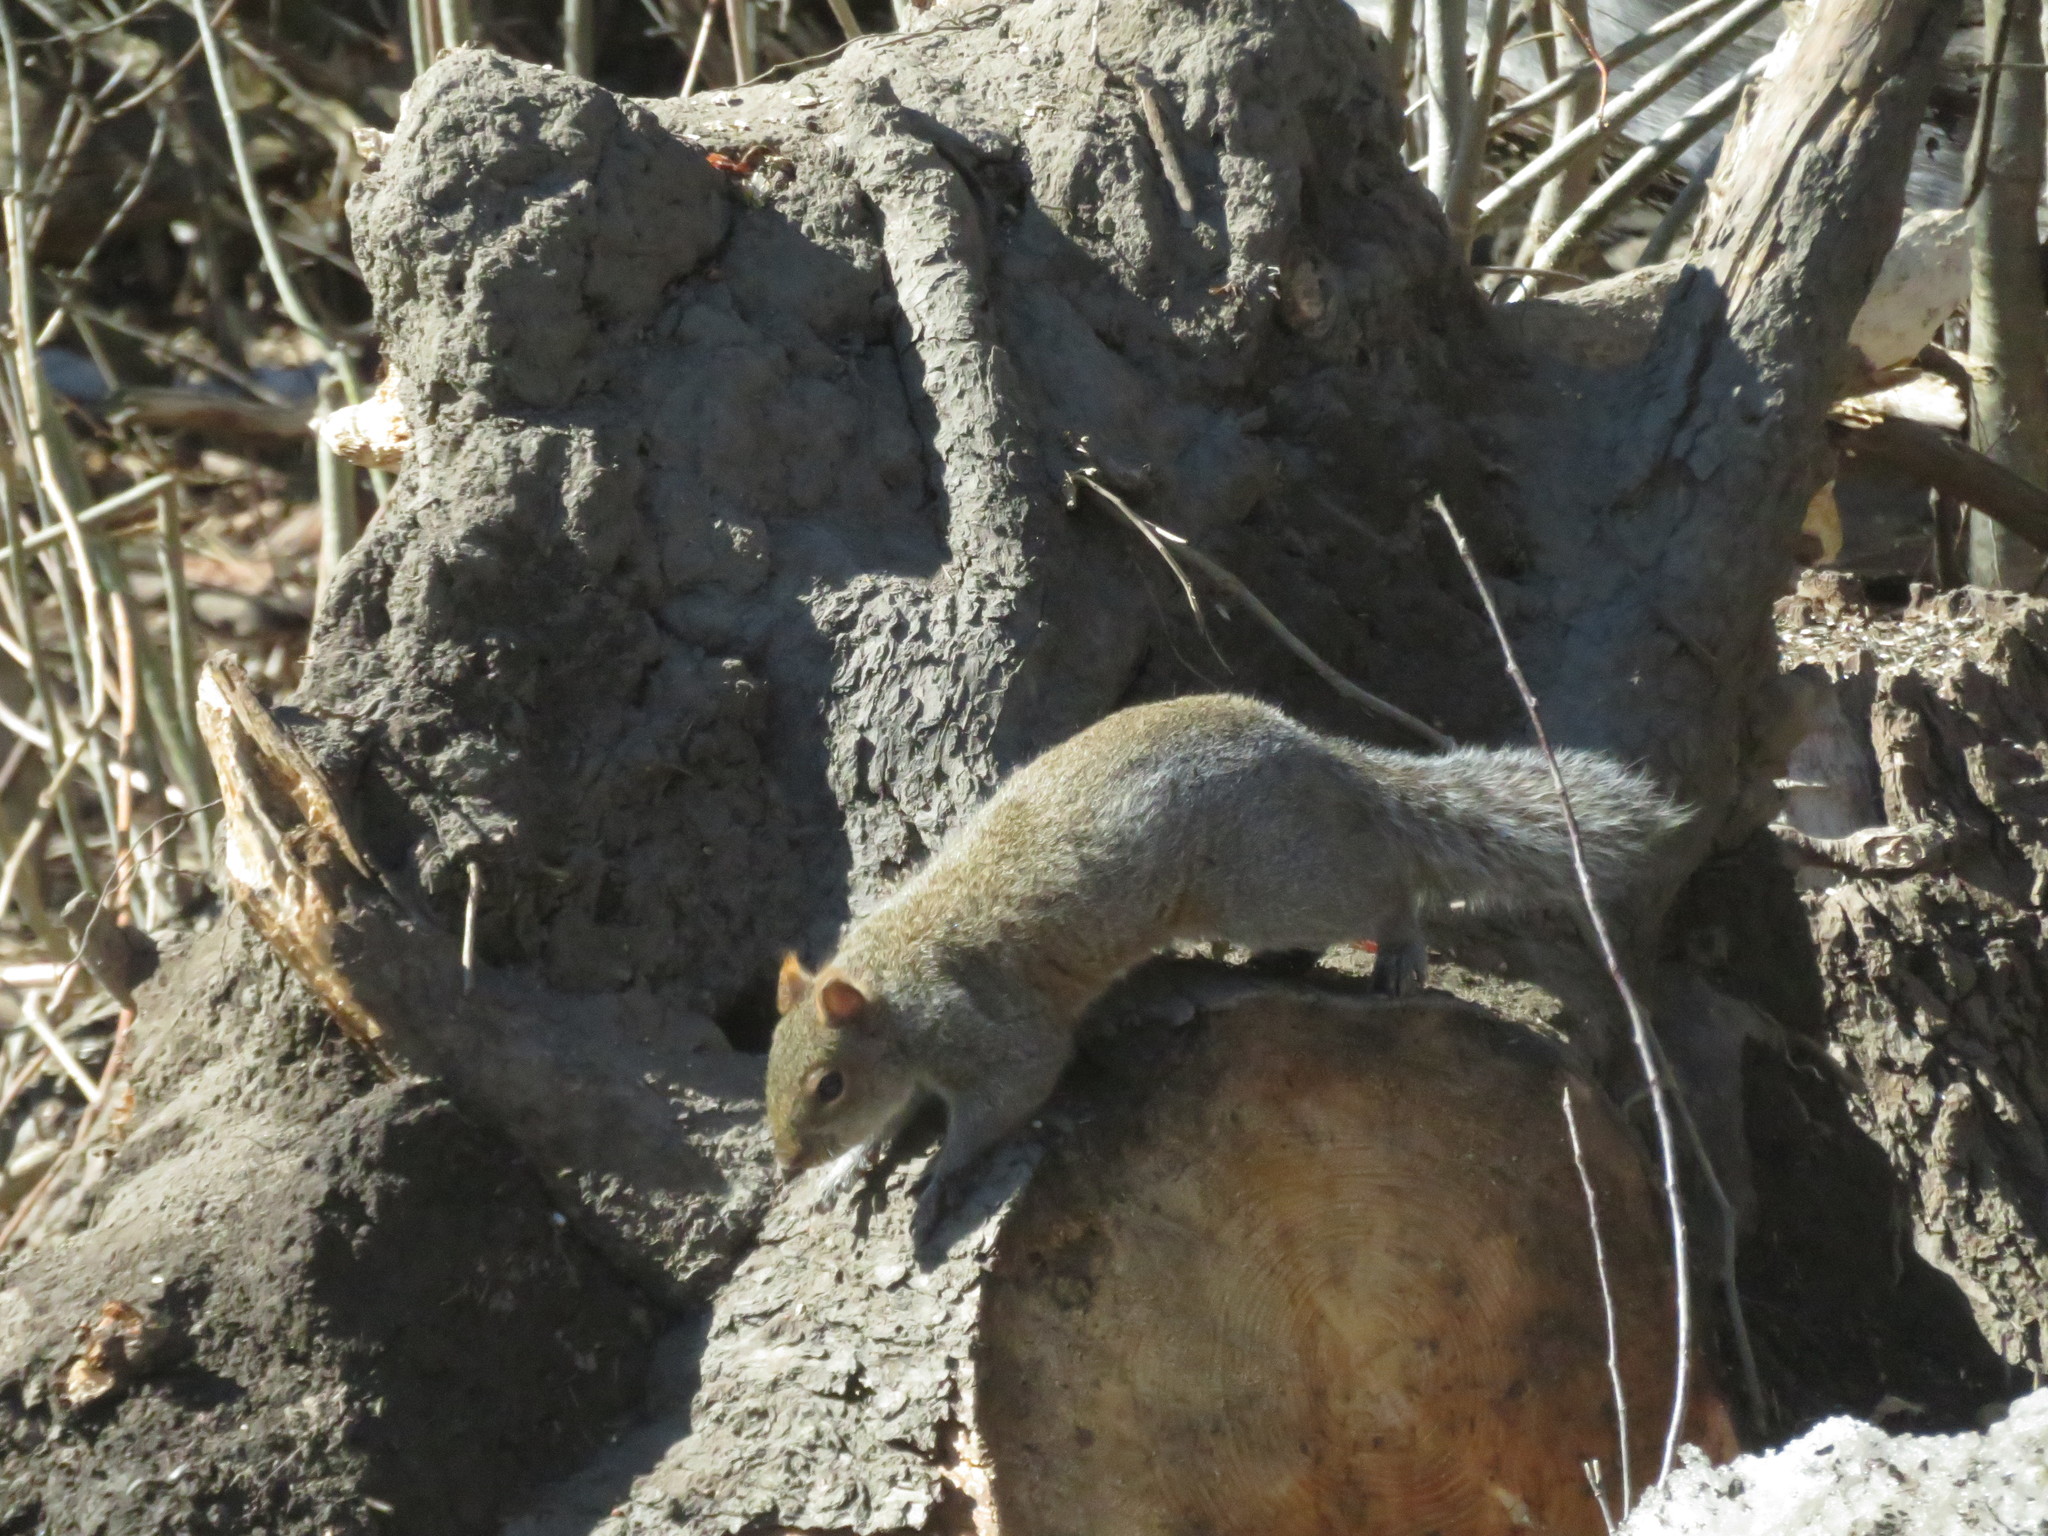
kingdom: Animalia
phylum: Chordata
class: Mammalia
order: Rodentia
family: Sciuridae
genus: Sciurus
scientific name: Sciurus carolinensis
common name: Eastern gray squirrel
